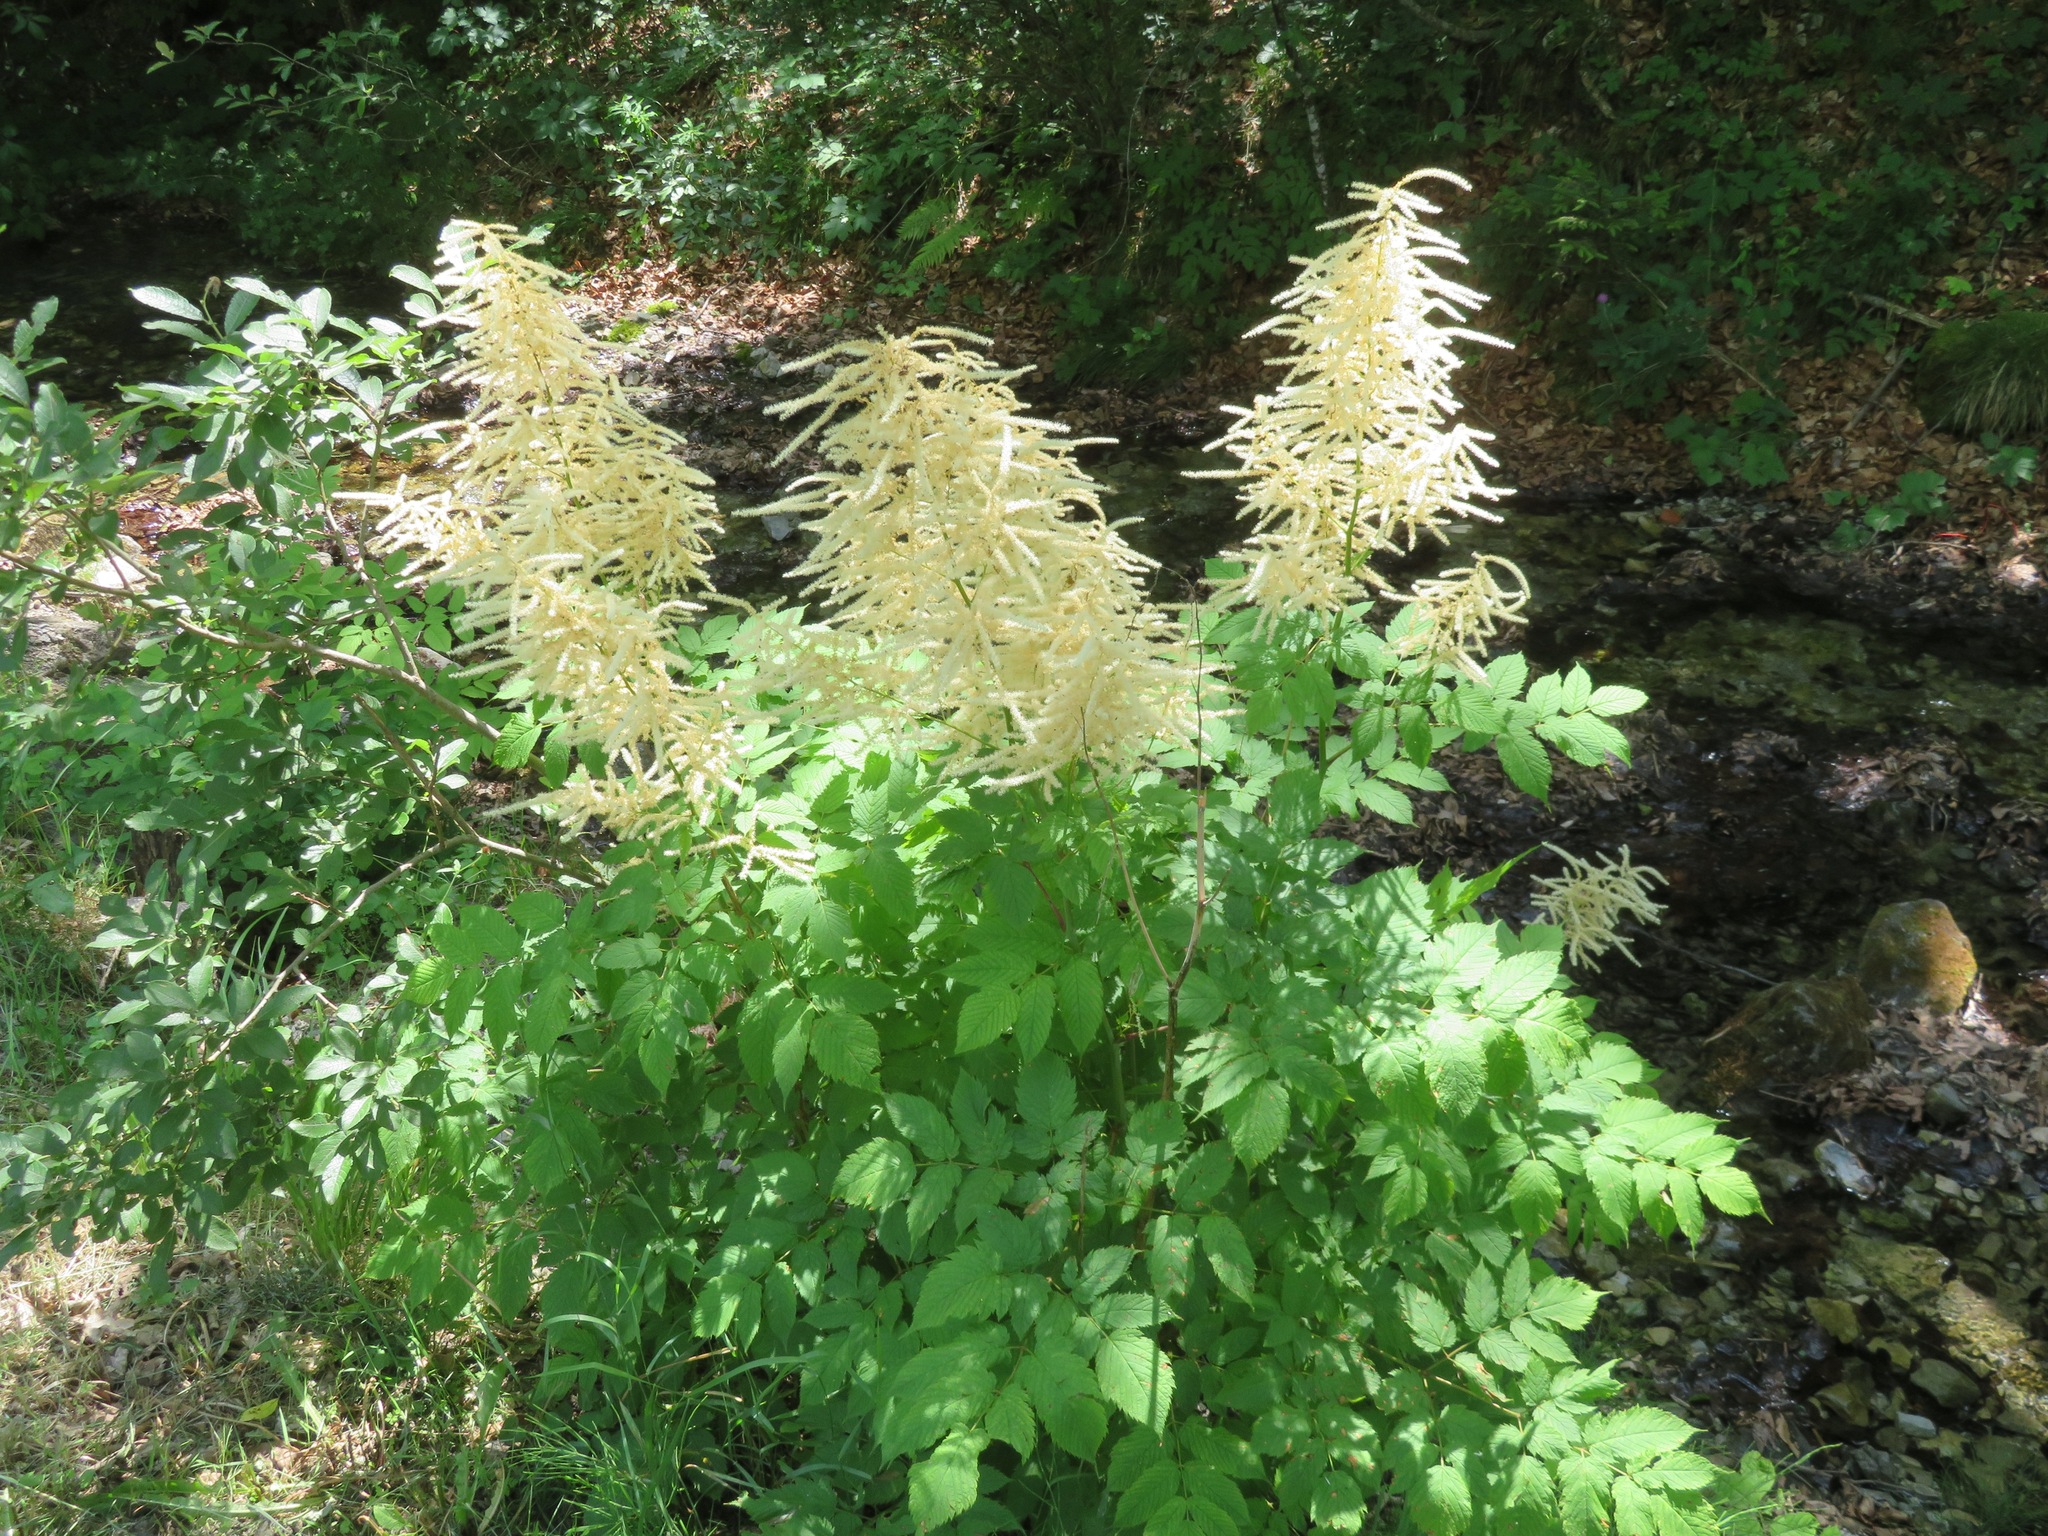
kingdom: Plantae
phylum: Tracheophyta
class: Magnoliopsida
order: Rosales
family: Rosaceae
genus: Aruncus
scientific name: Aruncus dioicus
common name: Buck's-beard
